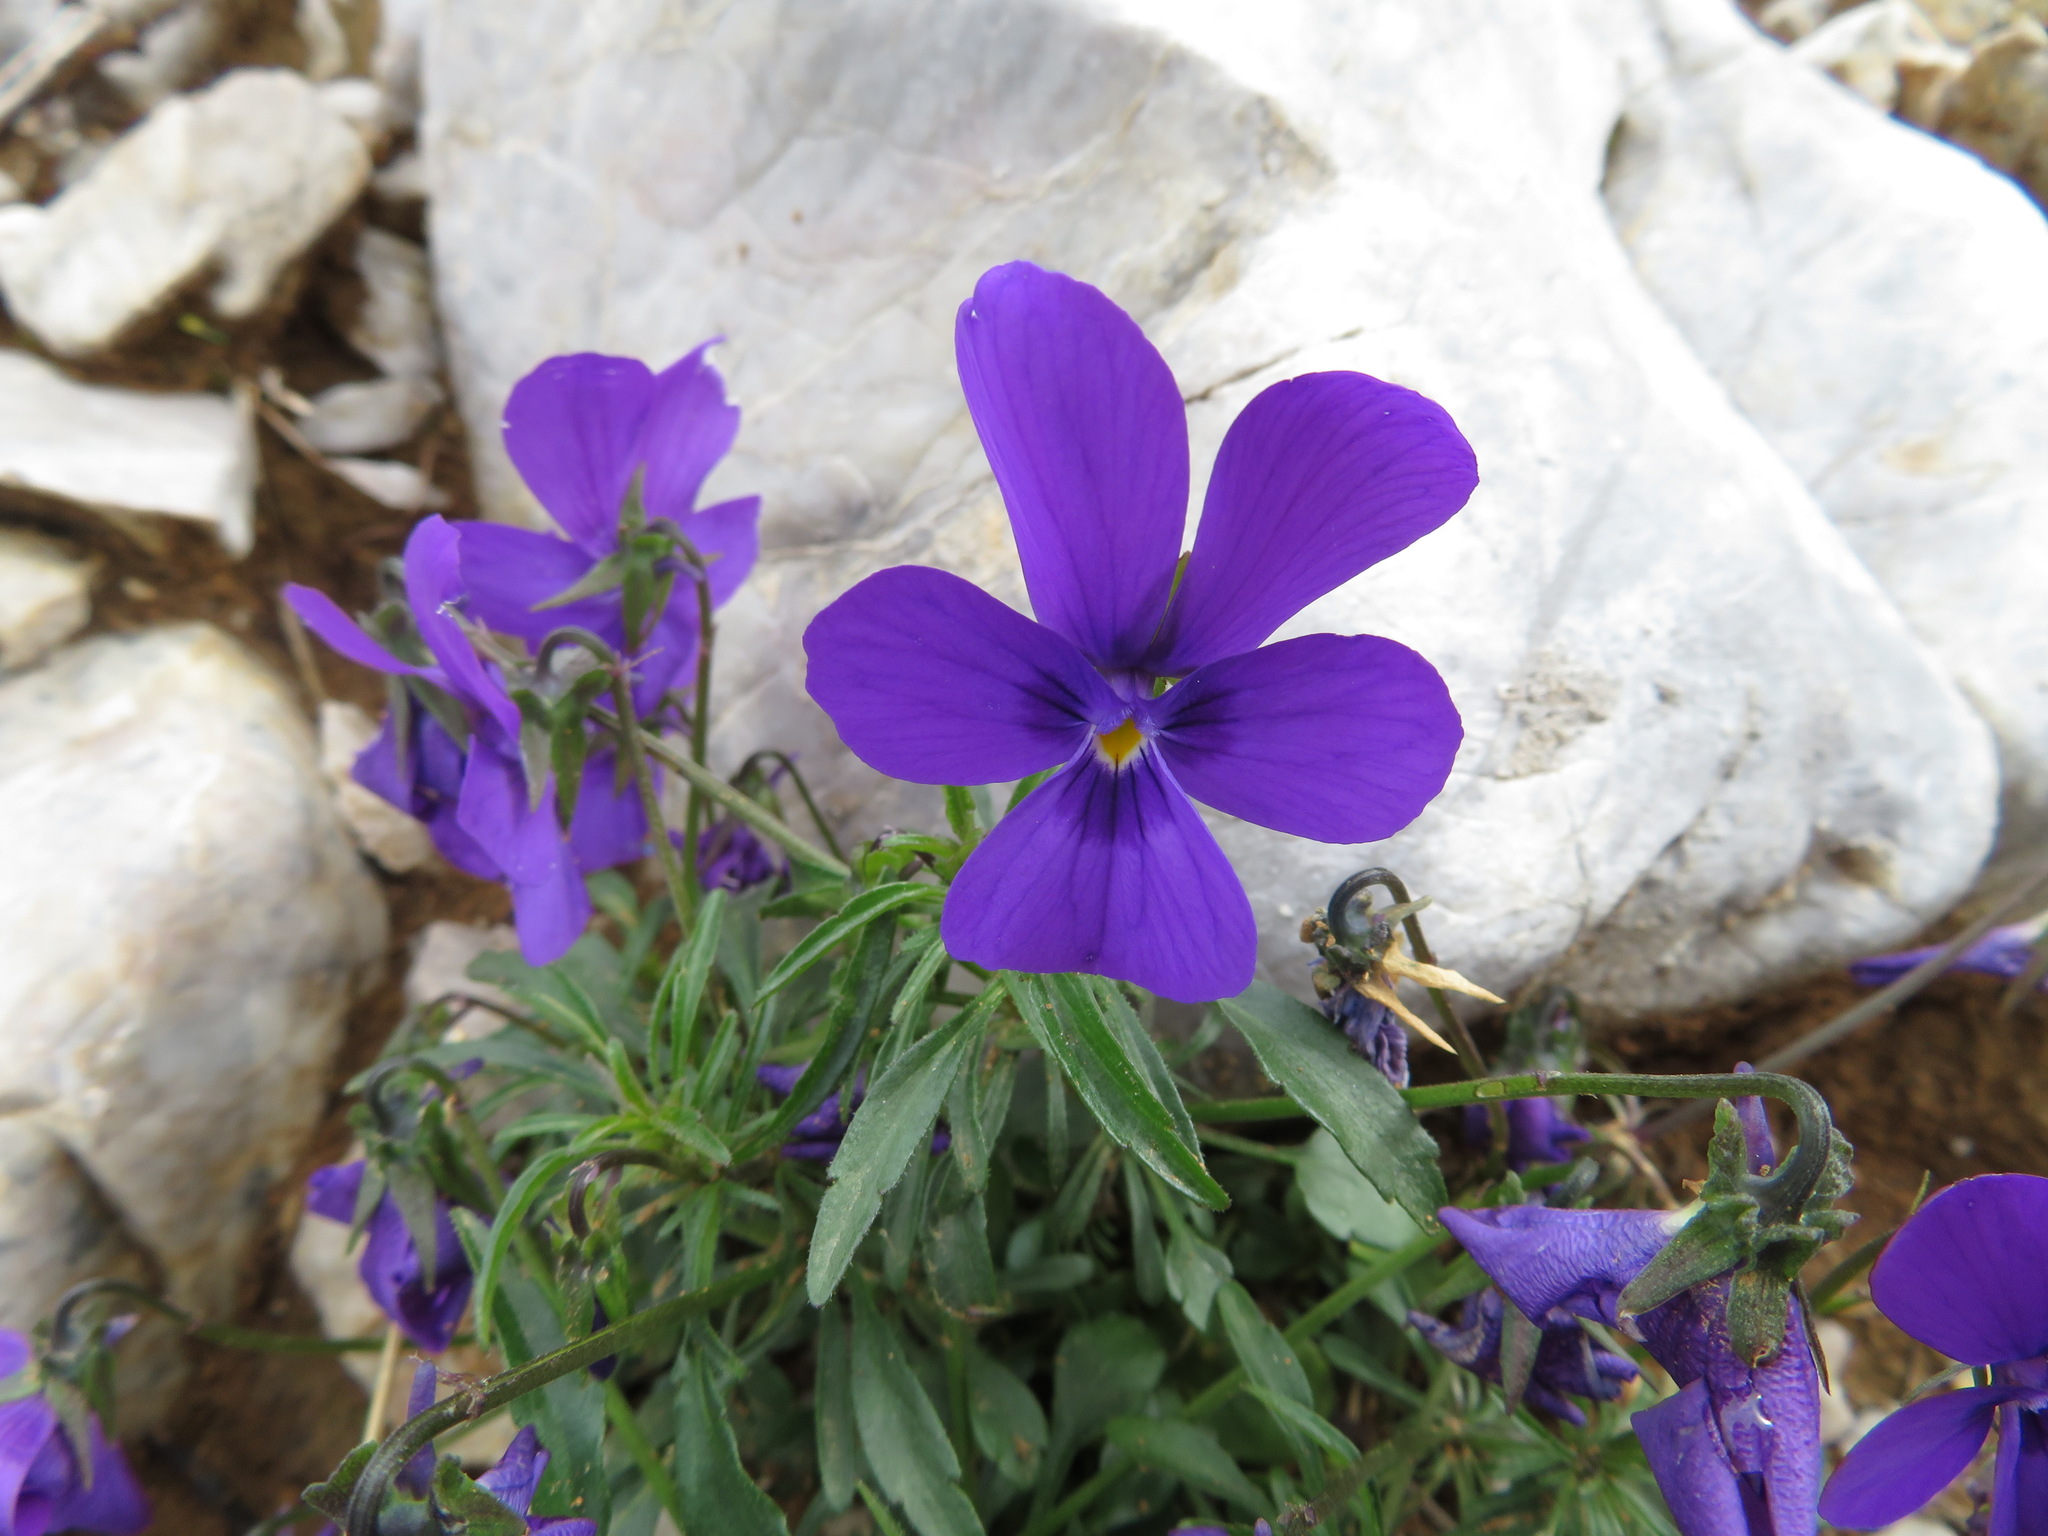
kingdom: Plantae
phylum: Tracheophyta
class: Magnoliopsida
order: Malpighiales
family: Violaceae
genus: Viola
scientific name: Viola dubyana
